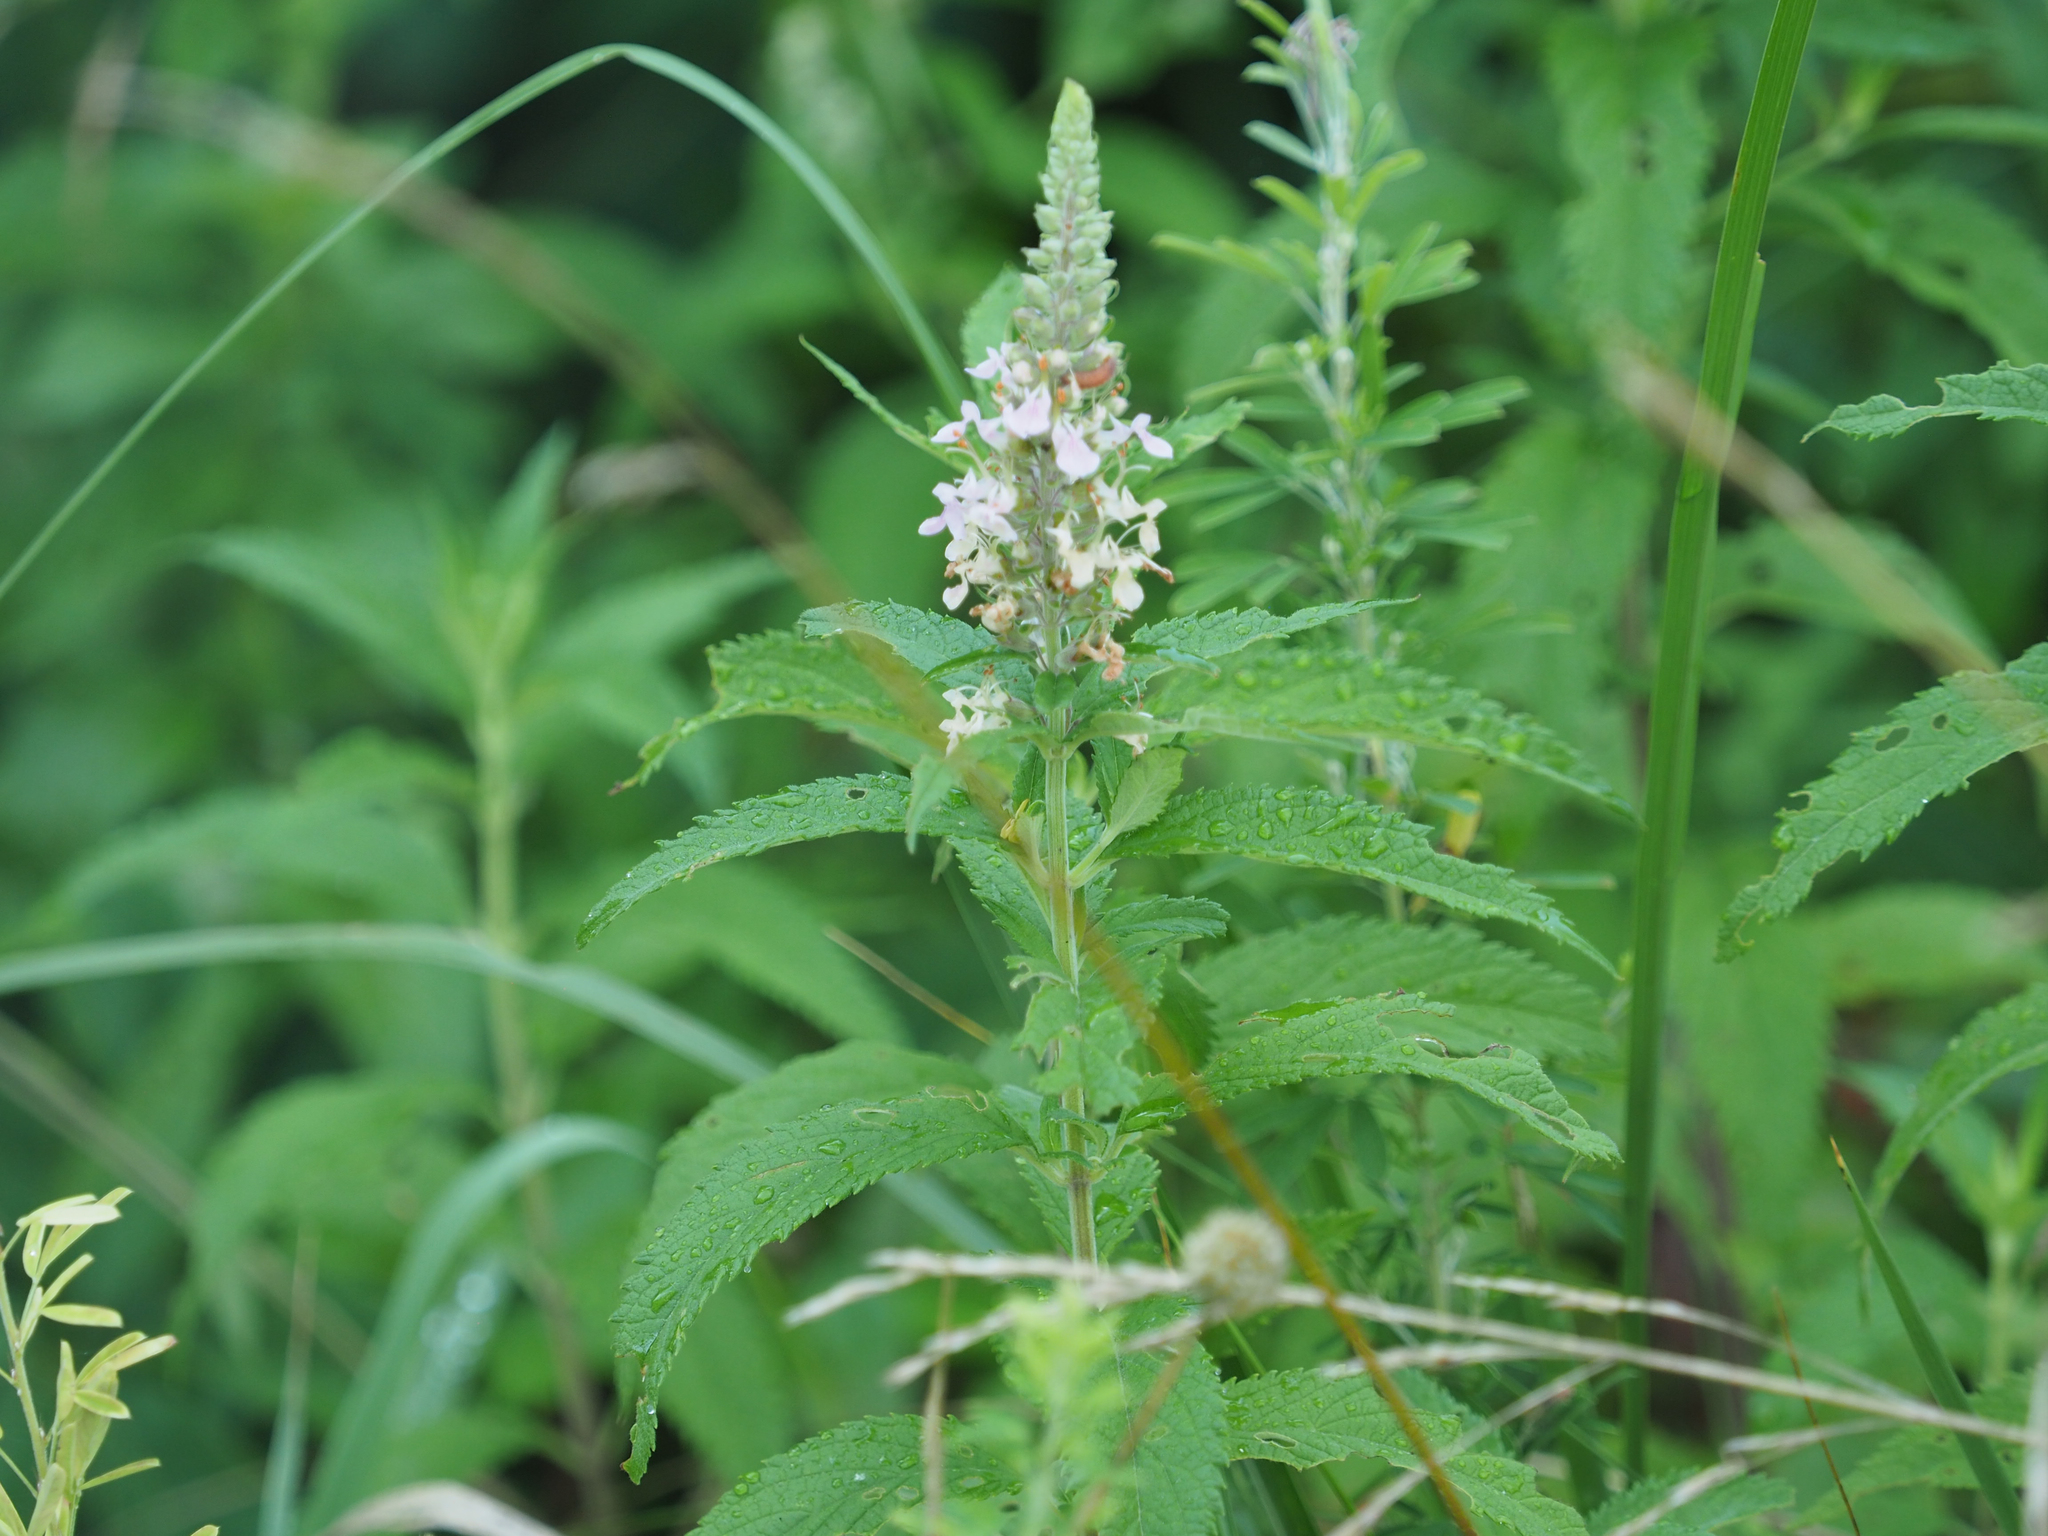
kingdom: Plantae
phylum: Tracheophyta
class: Magnoliopsida
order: Lamiales
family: Lamiaceae
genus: Teucrium
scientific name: Teucrium canadense
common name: American germander
